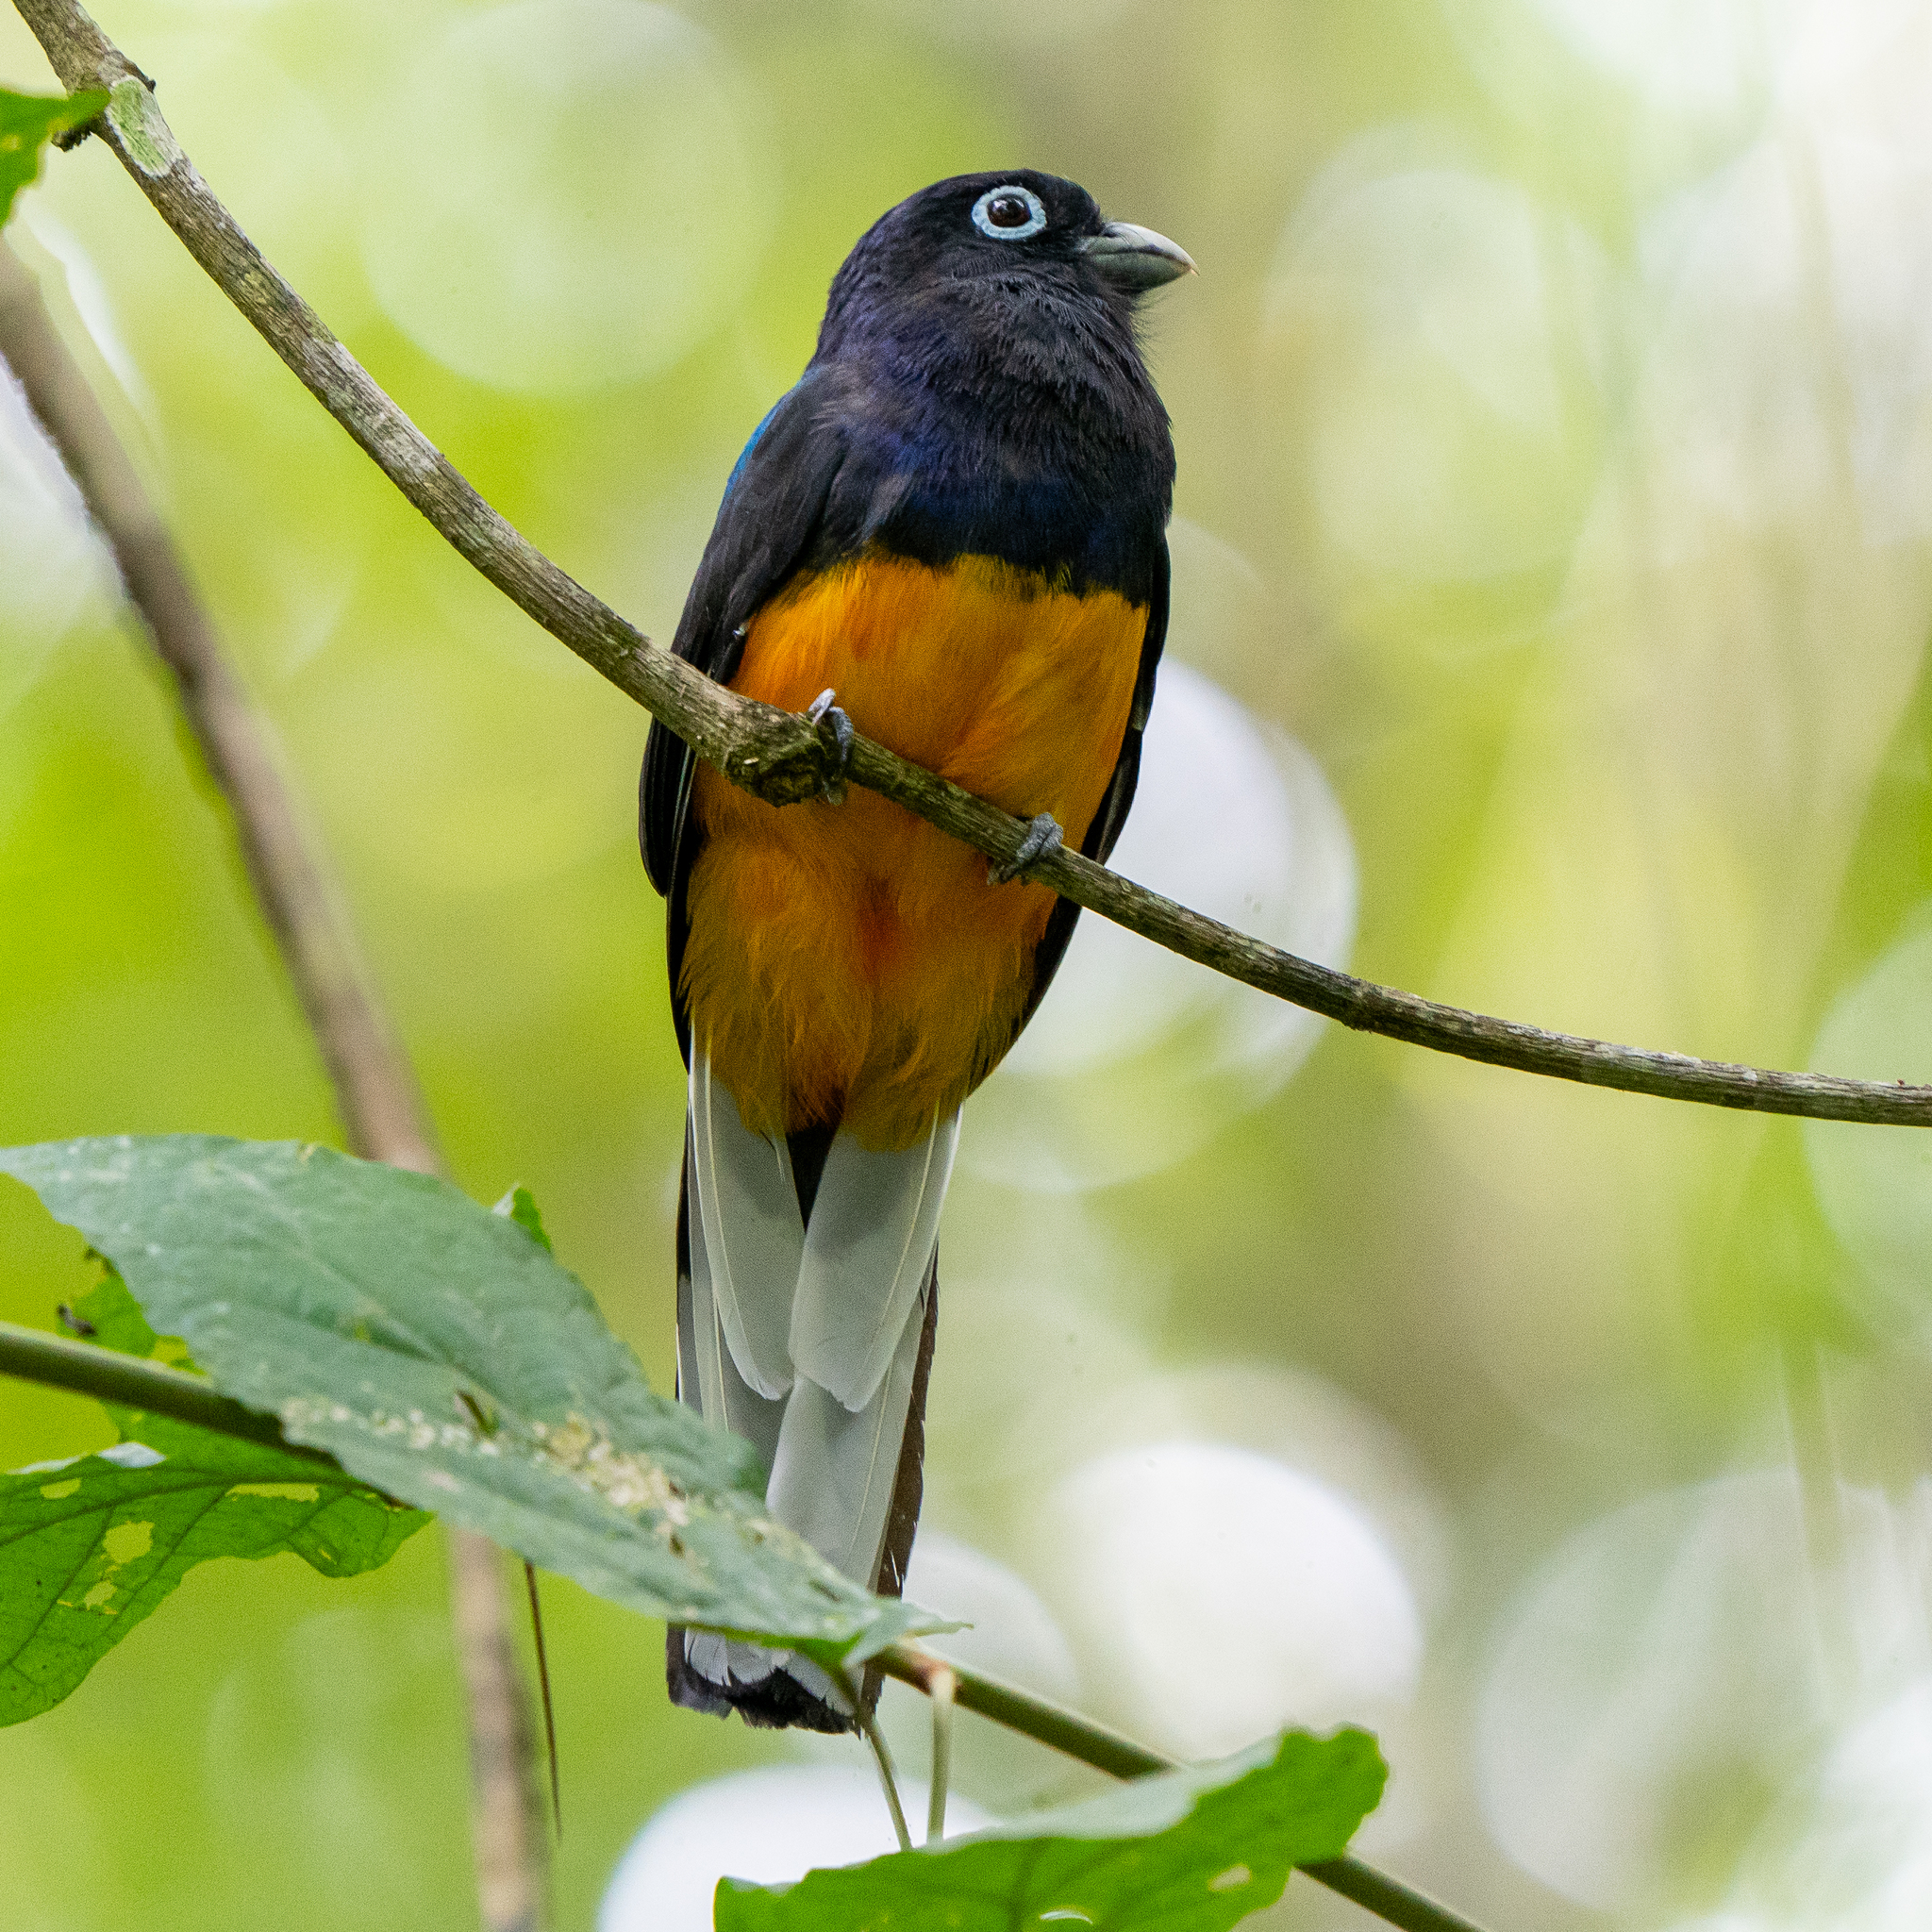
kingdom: Animalia
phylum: Chordata
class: Aves
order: Trogoniformes
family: Trogonidae
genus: Trogon
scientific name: Trogon chionurus
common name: White-tailed trogon
